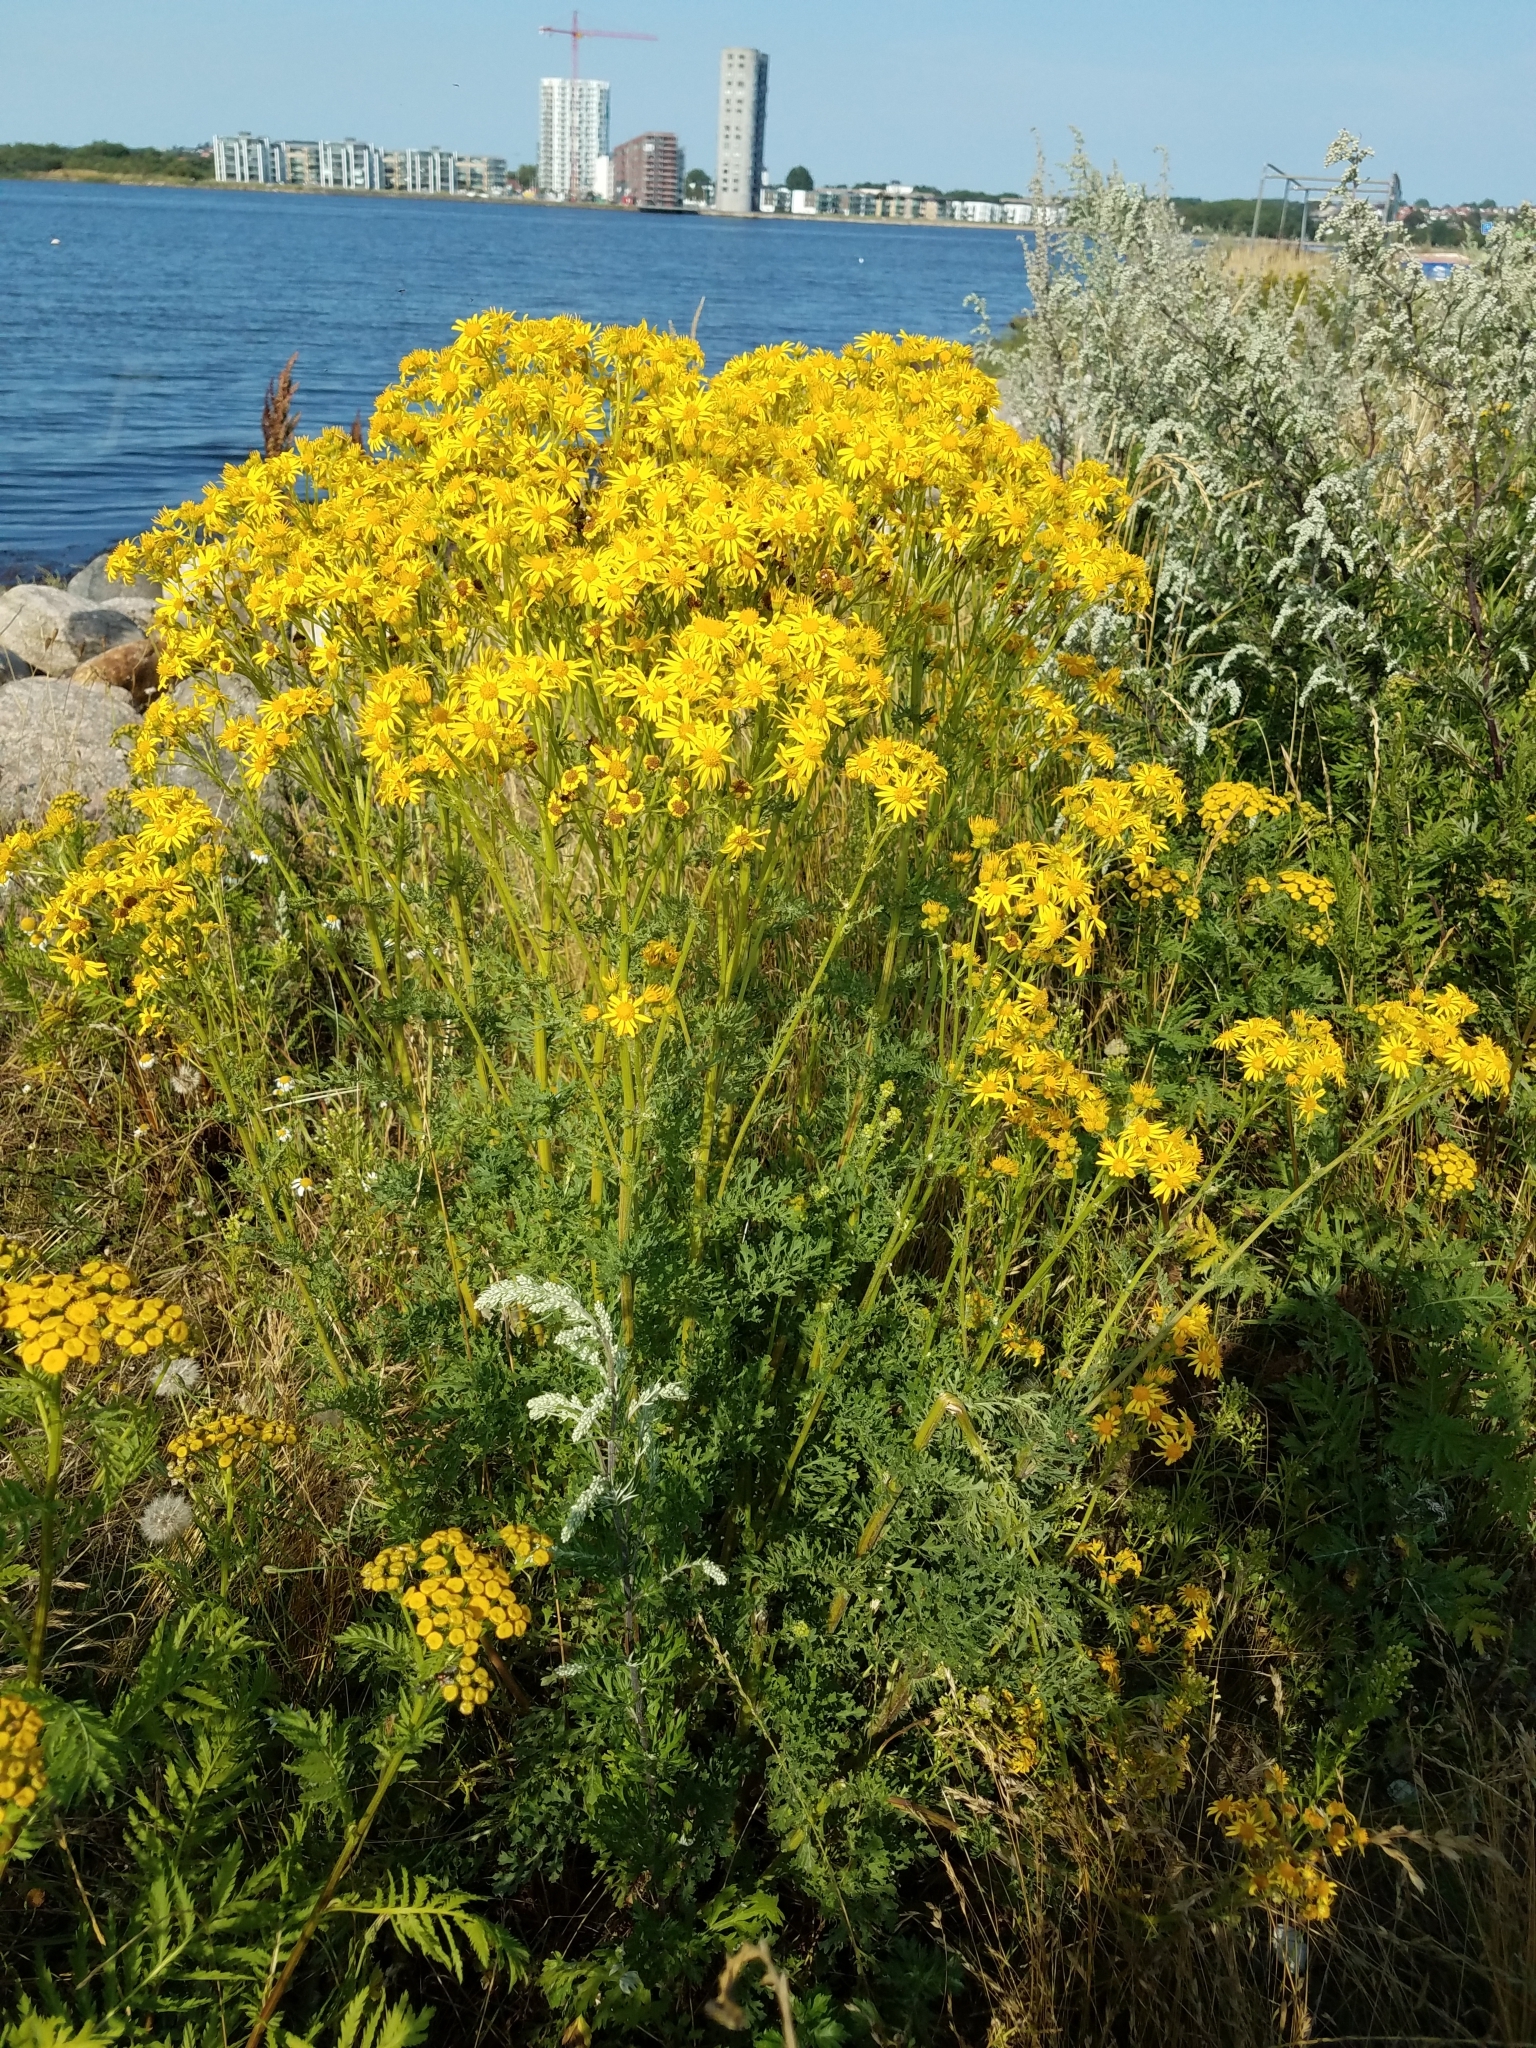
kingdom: Plantae
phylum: Tracheophyta
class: Magnoliopsida
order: Asterales
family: Asteraceae
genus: Jacobaea
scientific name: Jacobaea vulgaris
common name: Stinking willie
